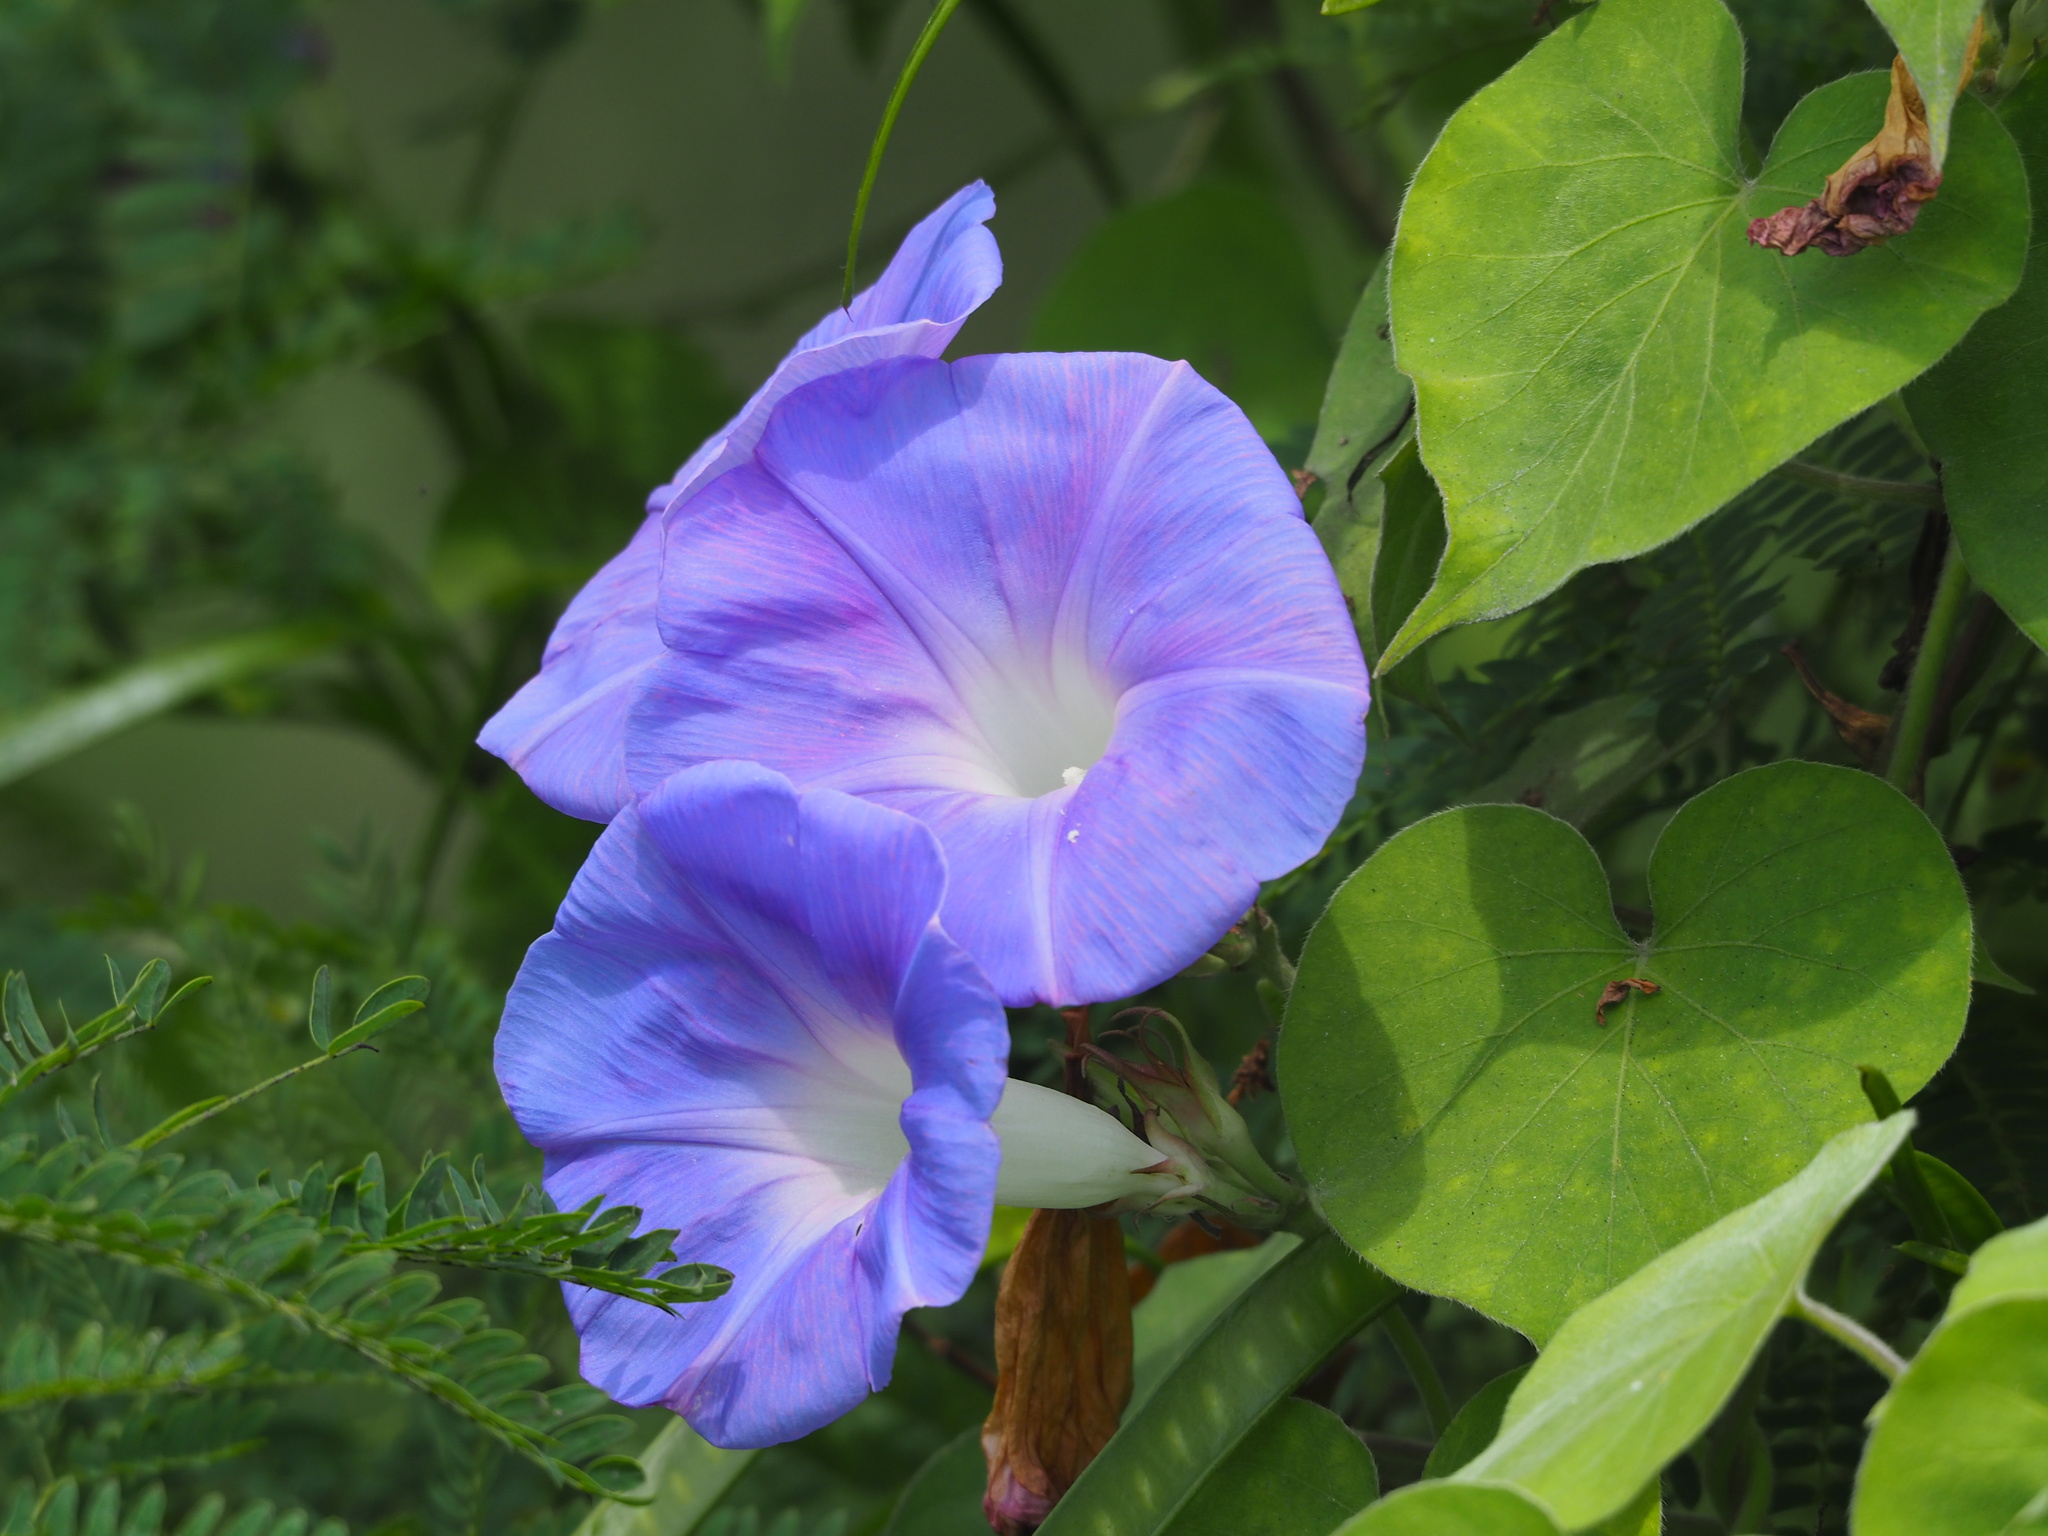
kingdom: Plantae
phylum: Tracheophyta
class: Magnoliopsida
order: Solanales
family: Convolvulaceae
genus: Ipomoea
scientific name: Ipomoea indica
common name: Blue dawnflower
